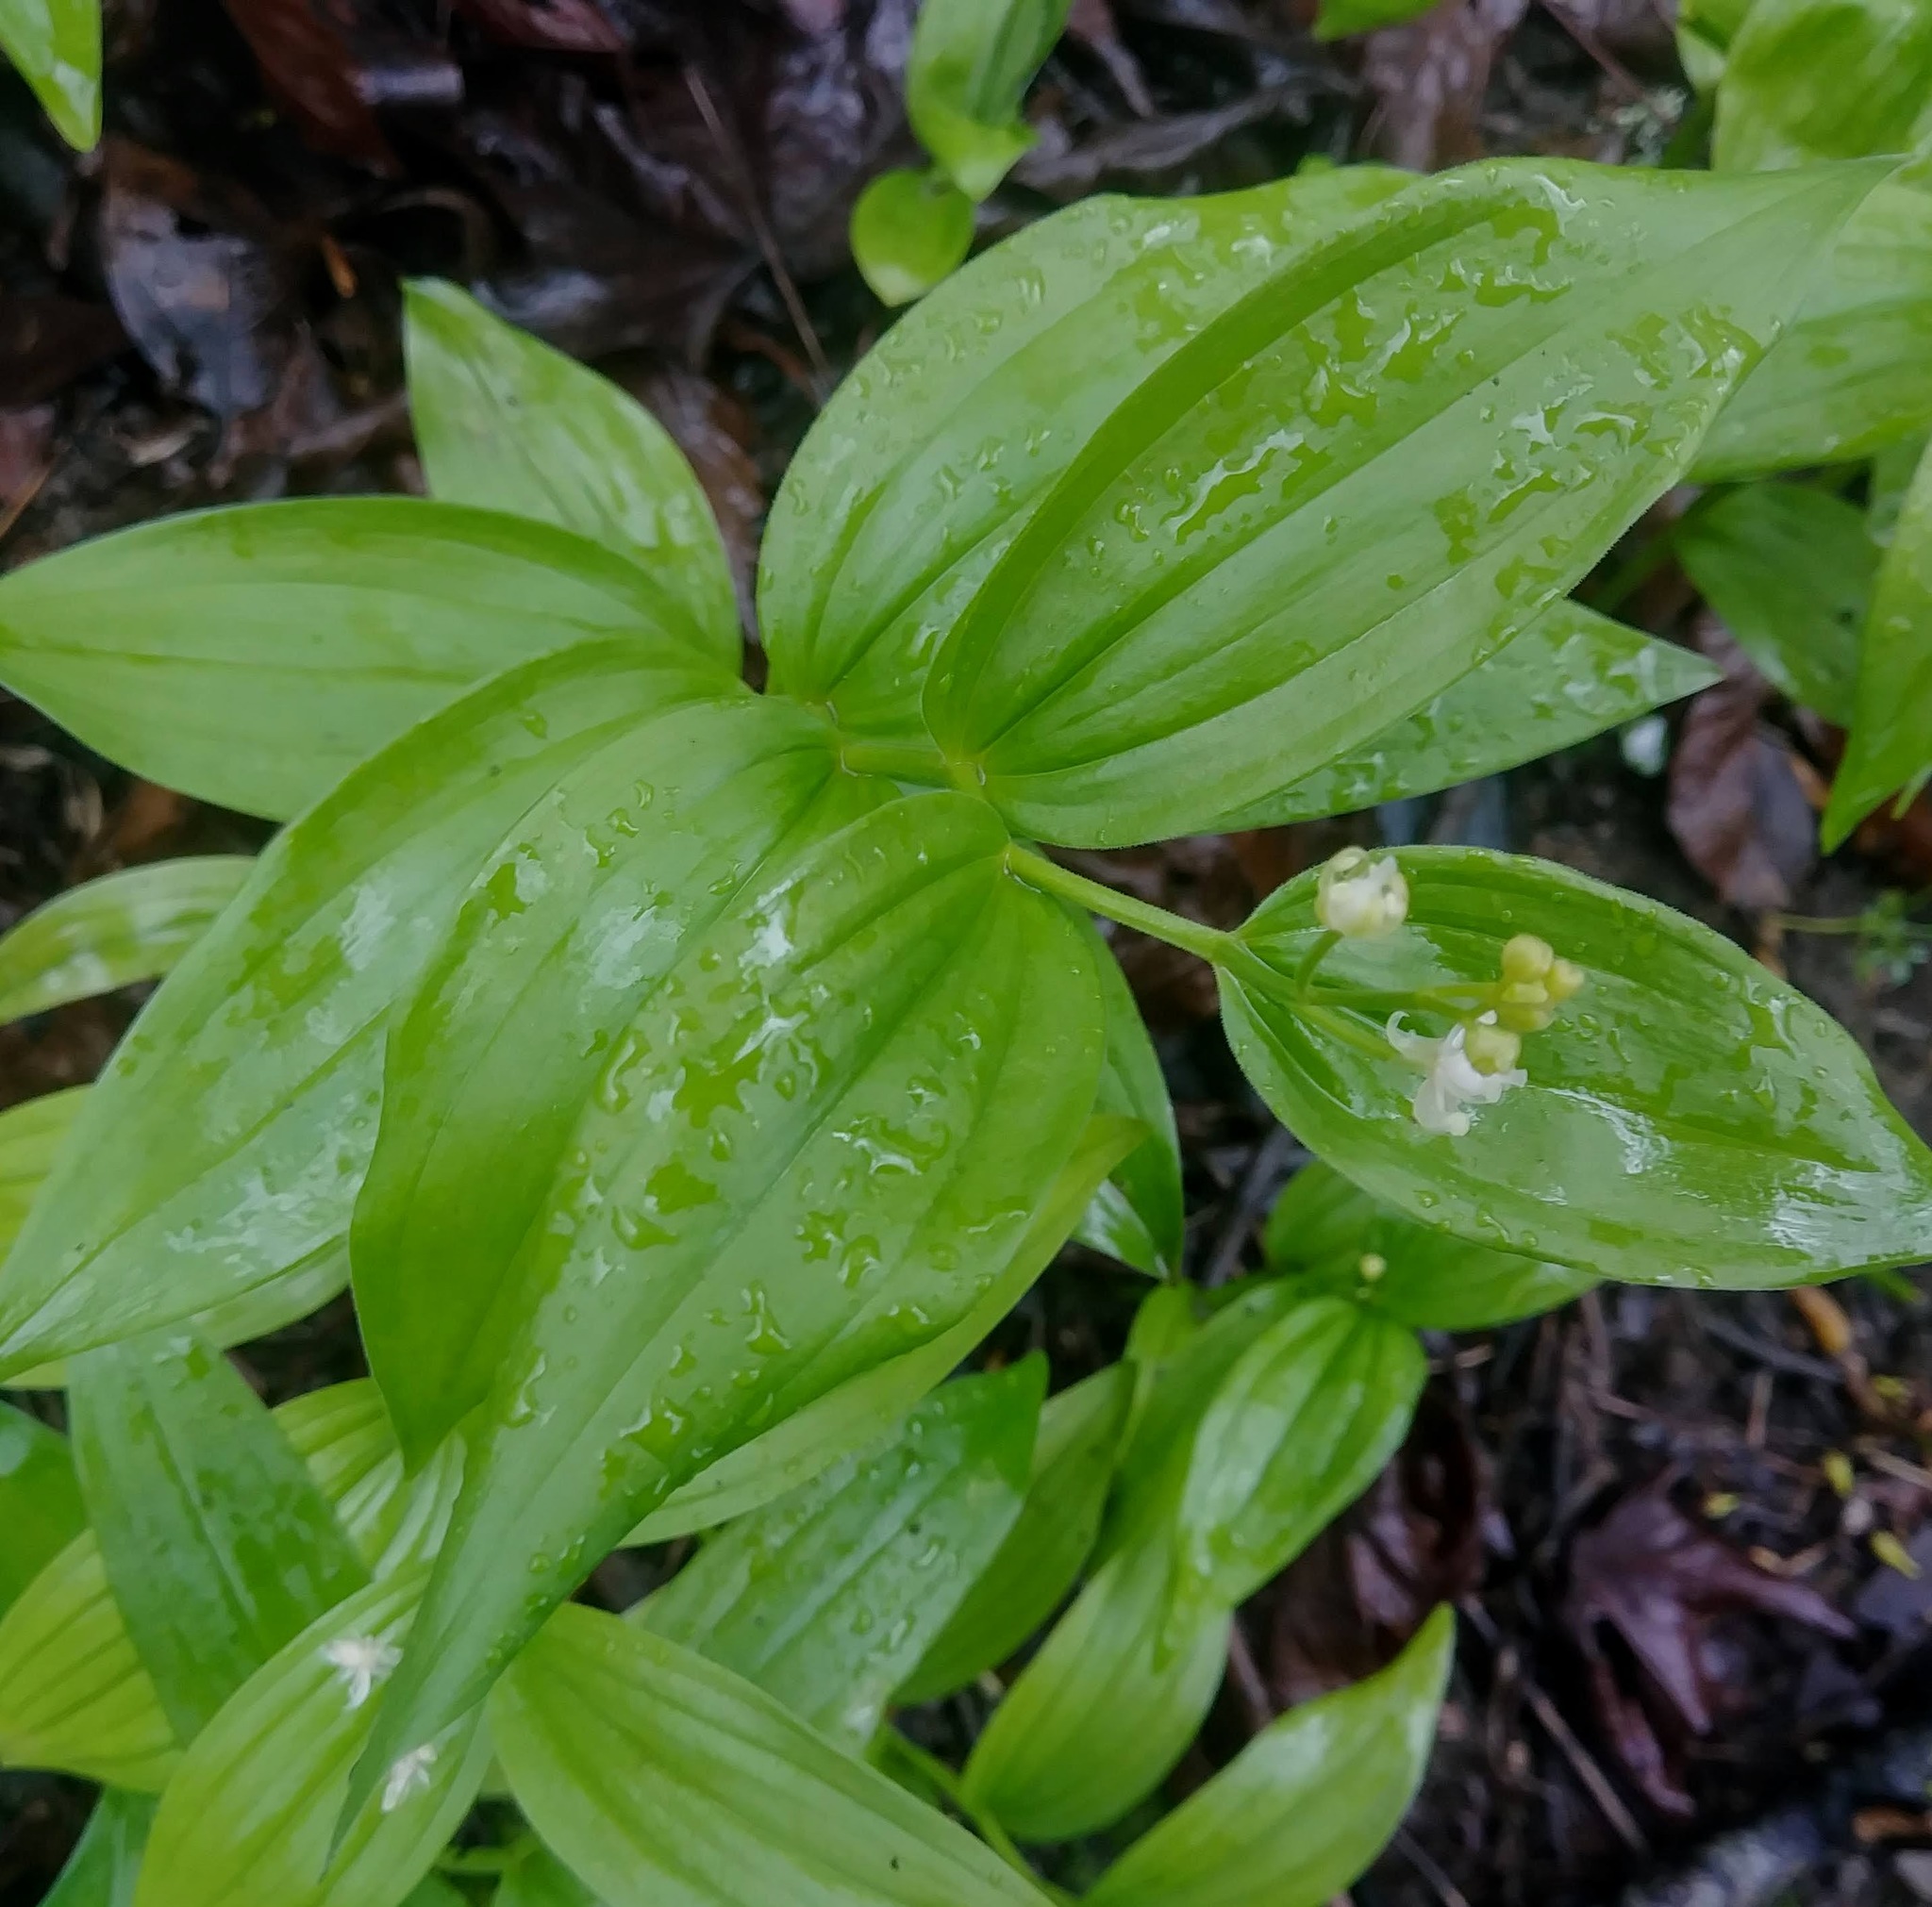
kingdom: Plantae
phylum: Tracheophyta
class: Liliopsida
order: Asparagales
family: Asparagaceae
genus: Maianthemum
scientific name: Maianthemum stellatum
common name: Little false solomon's seal
